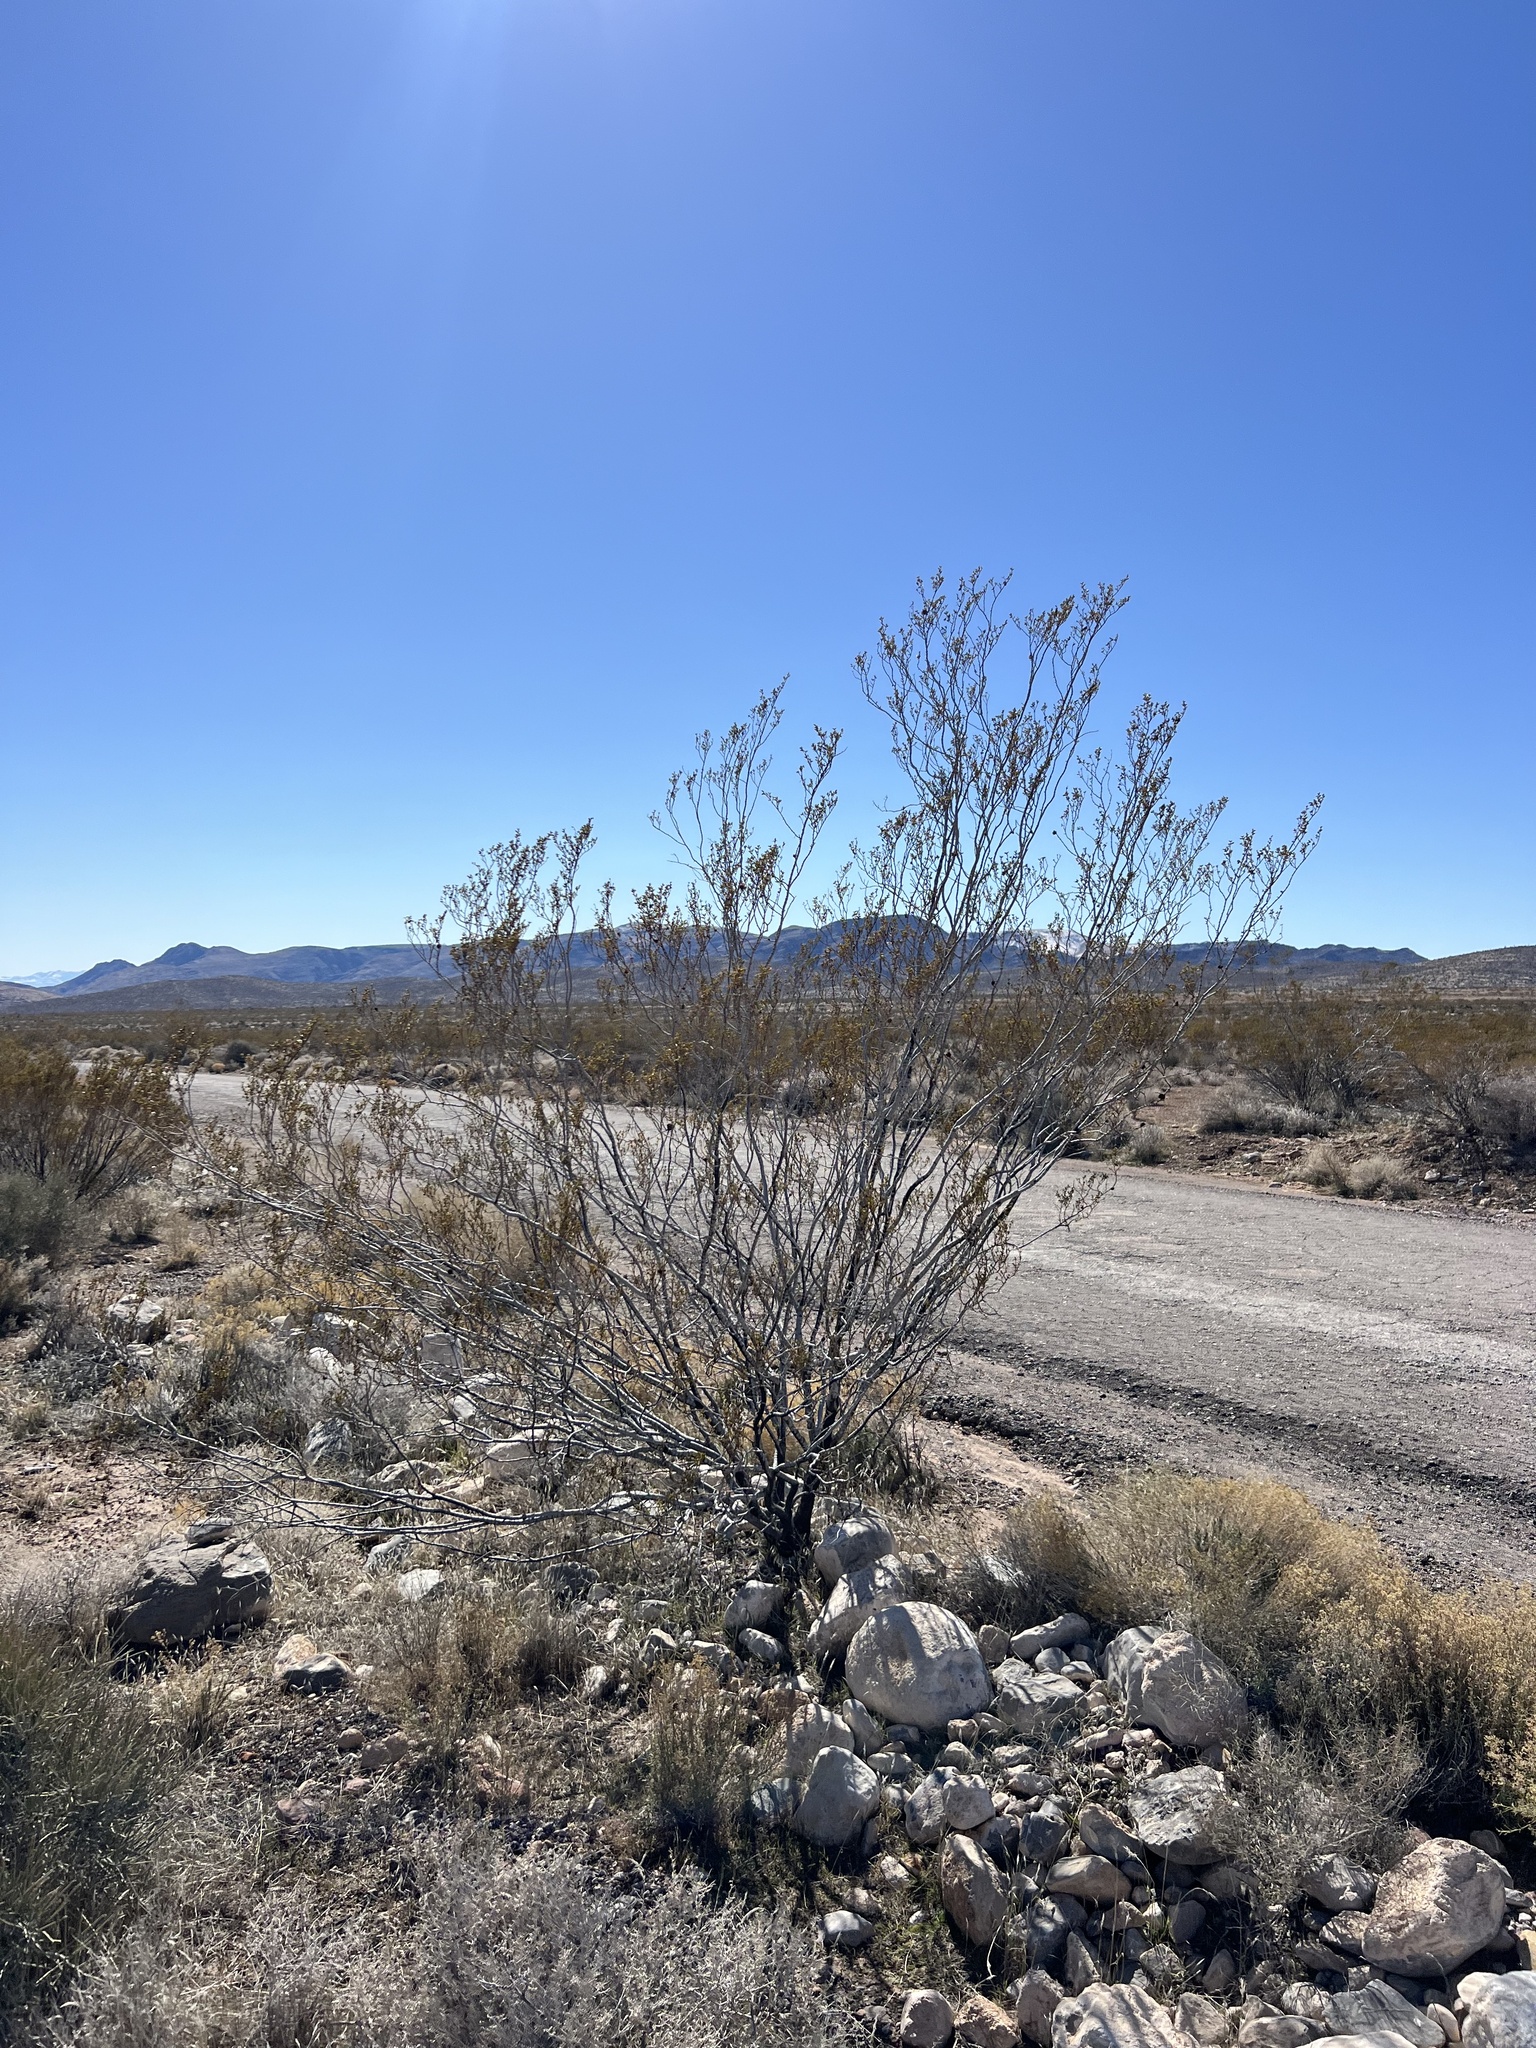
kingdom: Plantae
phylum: Tracheophyta
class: Magnoliopsida
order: Zygophyllales
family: Zygophyllaceae
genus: Larrea
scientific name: Larrea tridentata
